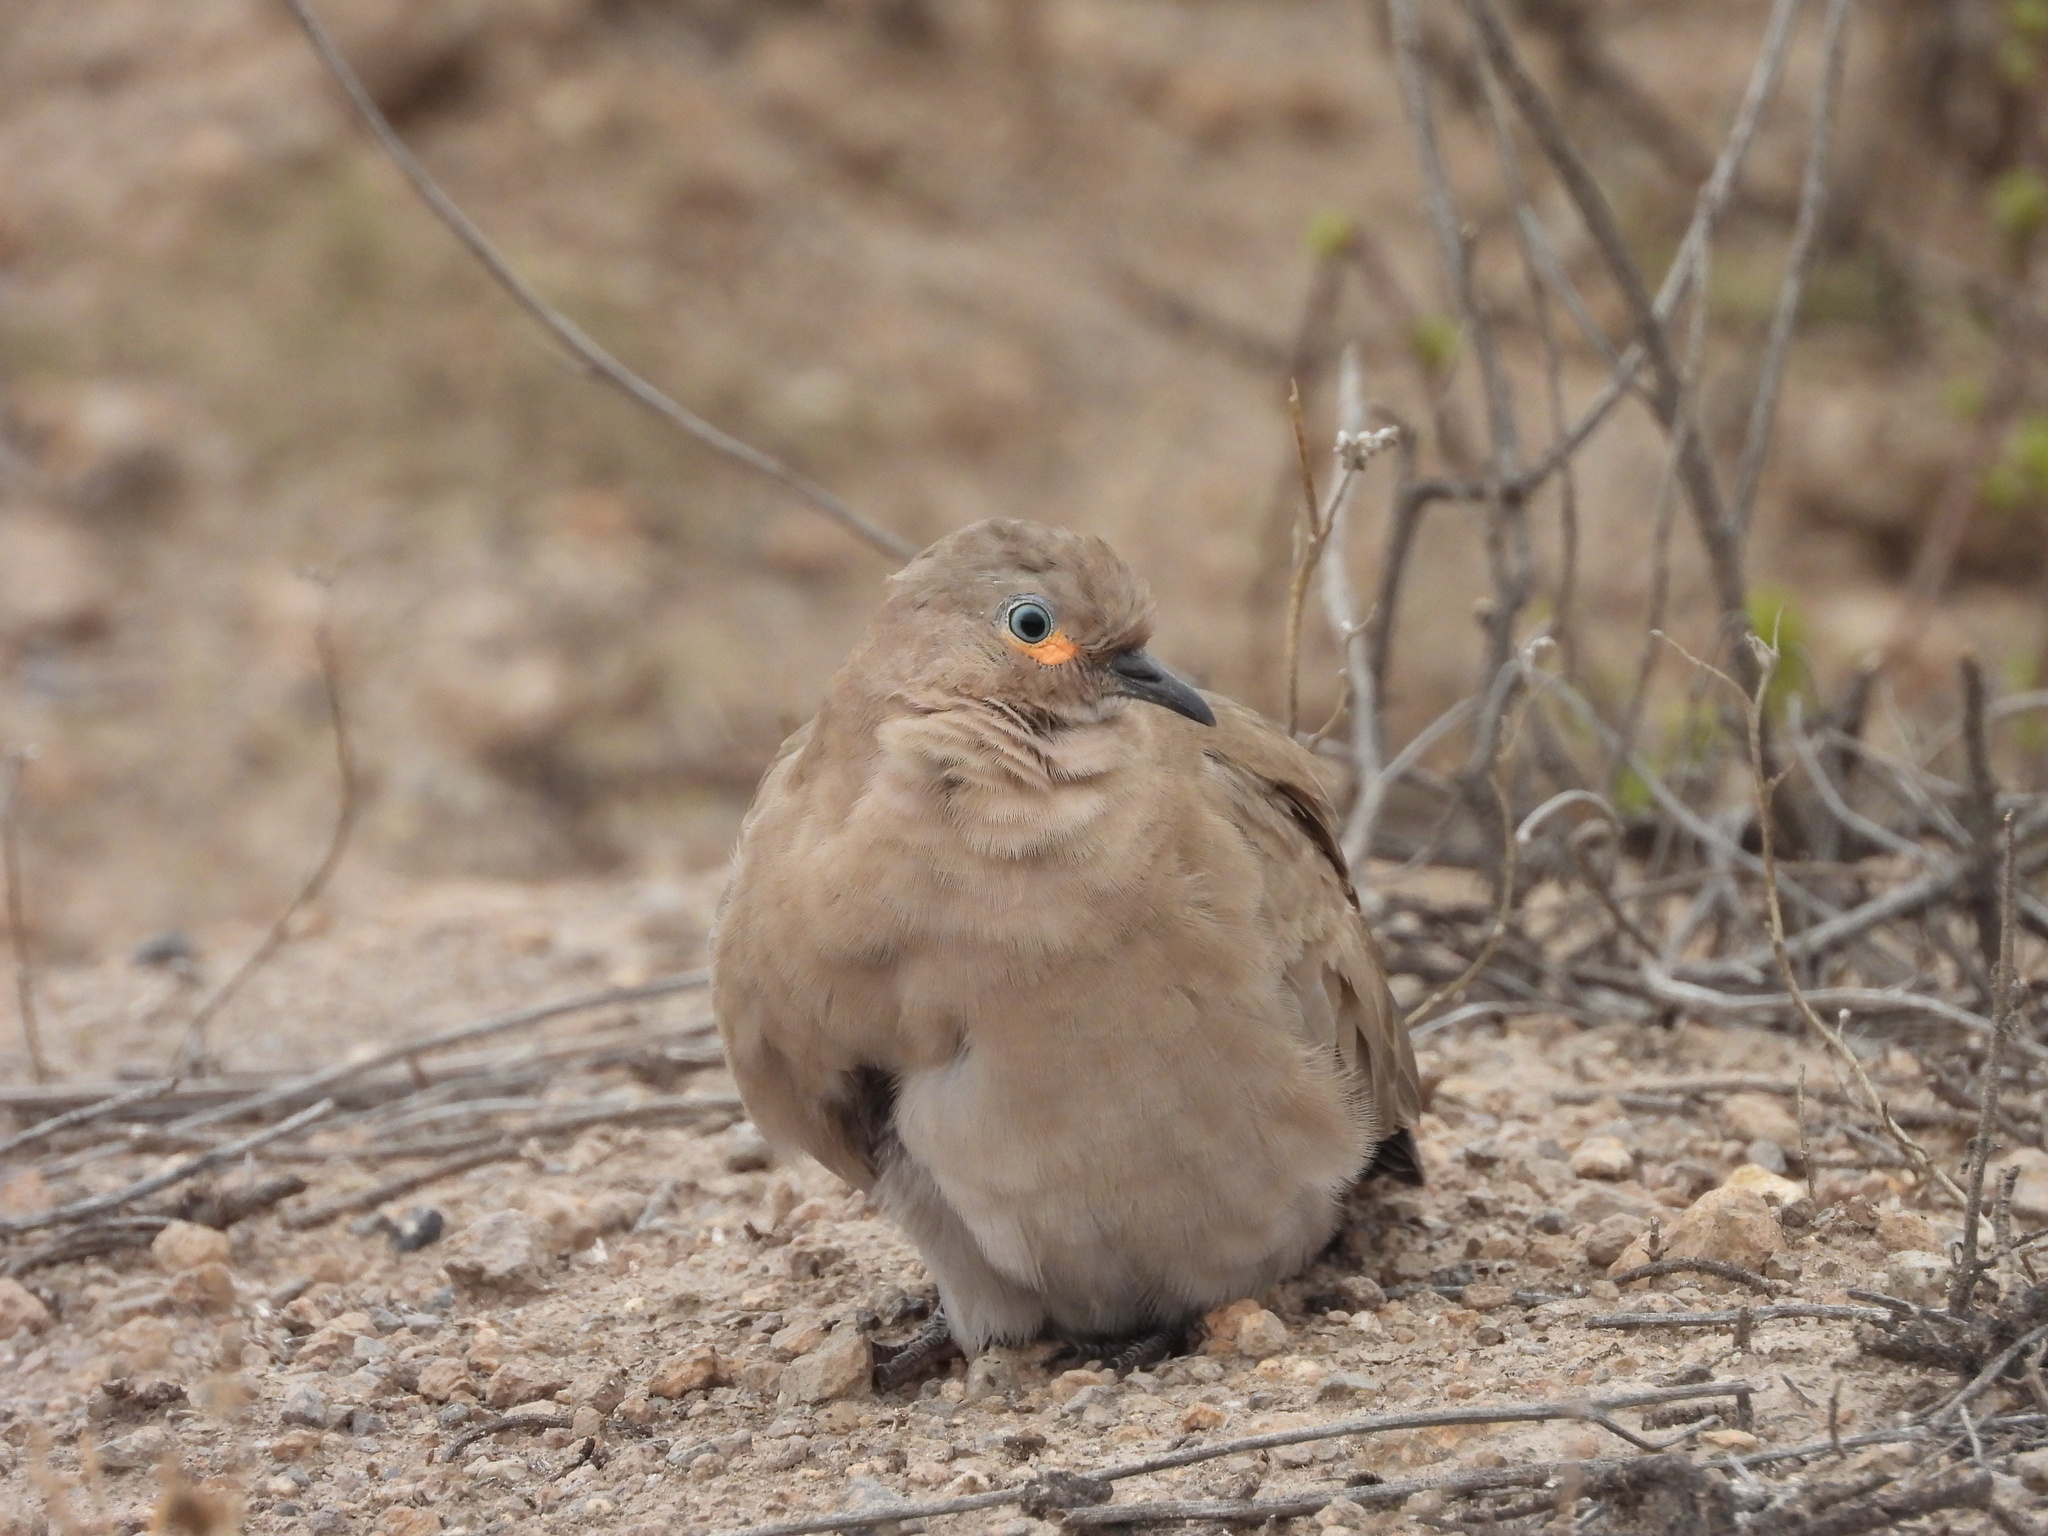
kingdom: Animalia
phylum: Chordata
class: Aves
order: Columbiformes
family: Columbidae
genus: Metriopelia
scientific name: Metriopelia melanoptera
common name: Black-winged ground dove
